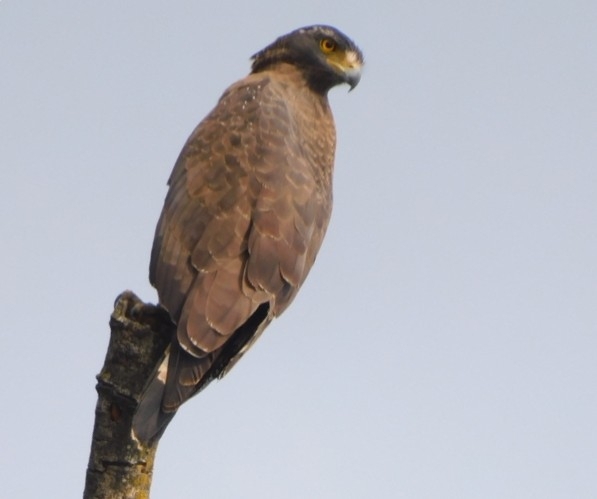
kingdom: Animalia
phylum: Chordata
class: Aves
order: Accipitriformes
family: Accipitridae
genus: Spilornis
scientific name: Spilornis cheela
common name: Crested serpent eagle
